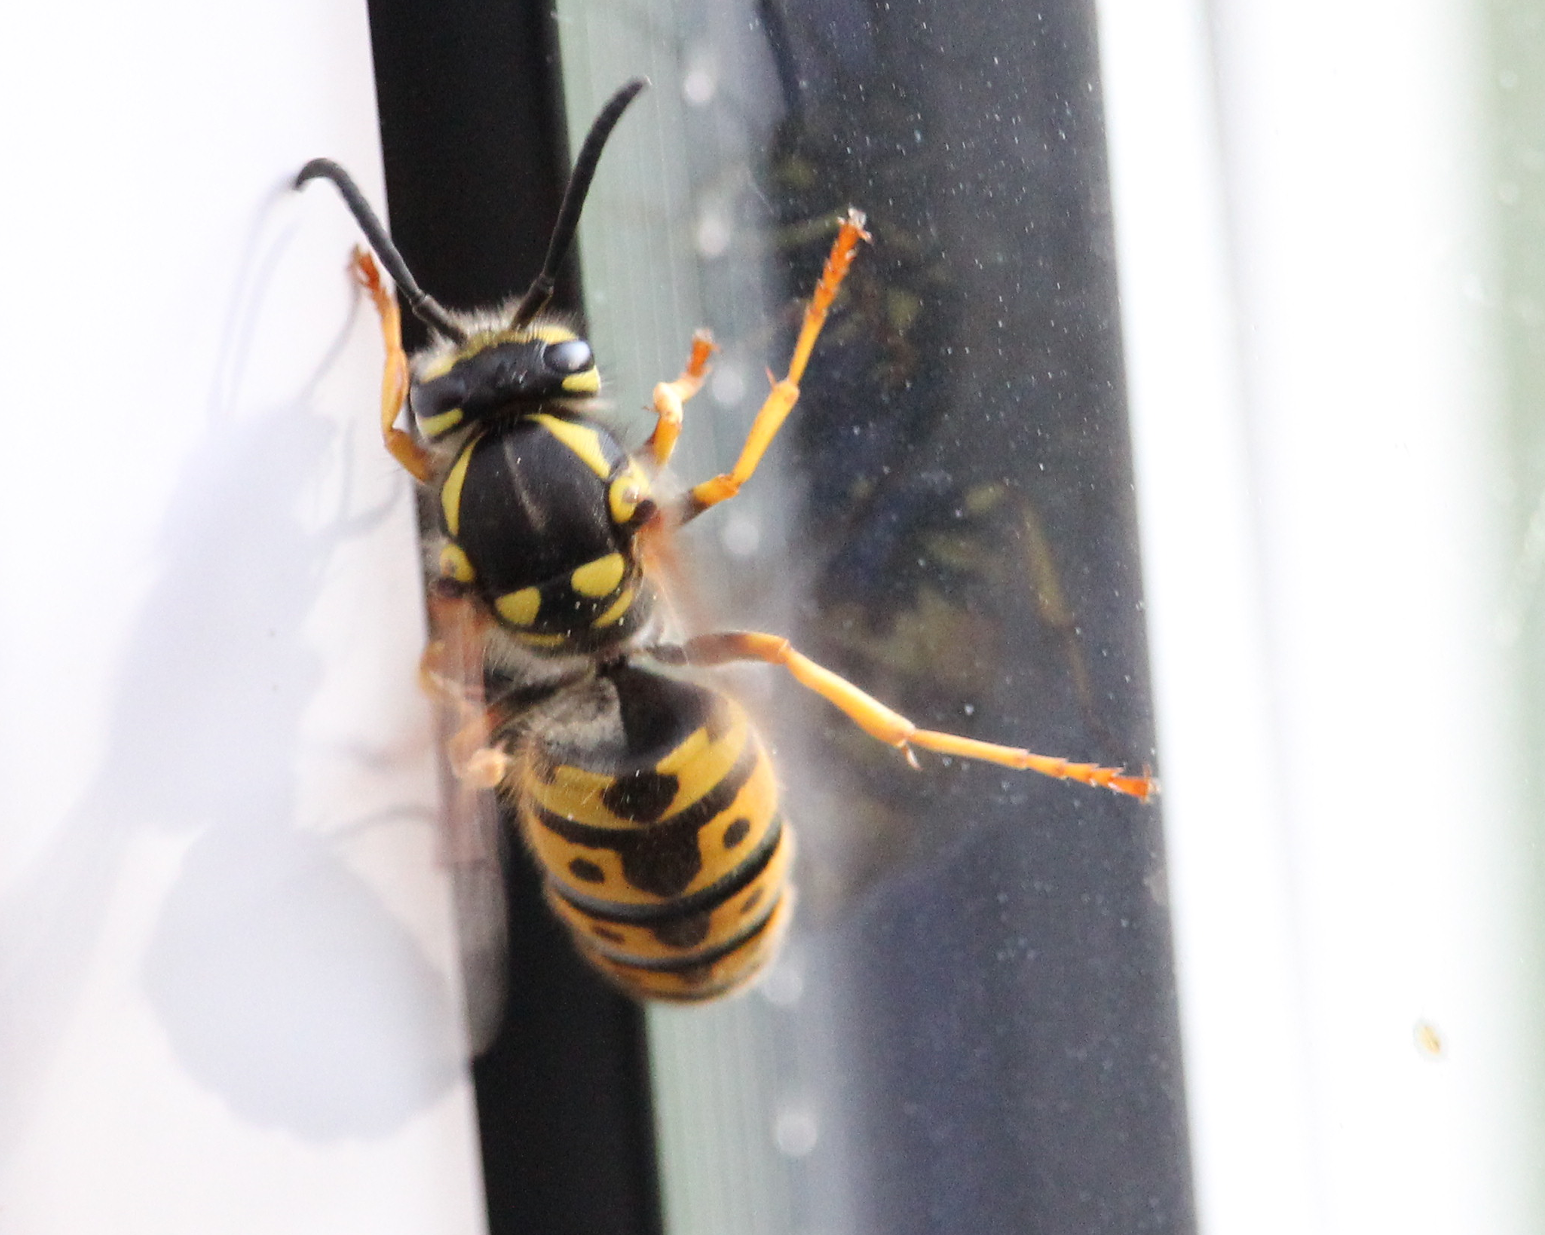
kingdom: Animalia
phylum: Arthropoda
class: Insecta
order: Hymenoptera
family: Vespidae
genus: Vespula
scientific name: Vespula germanica
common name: German wasp
